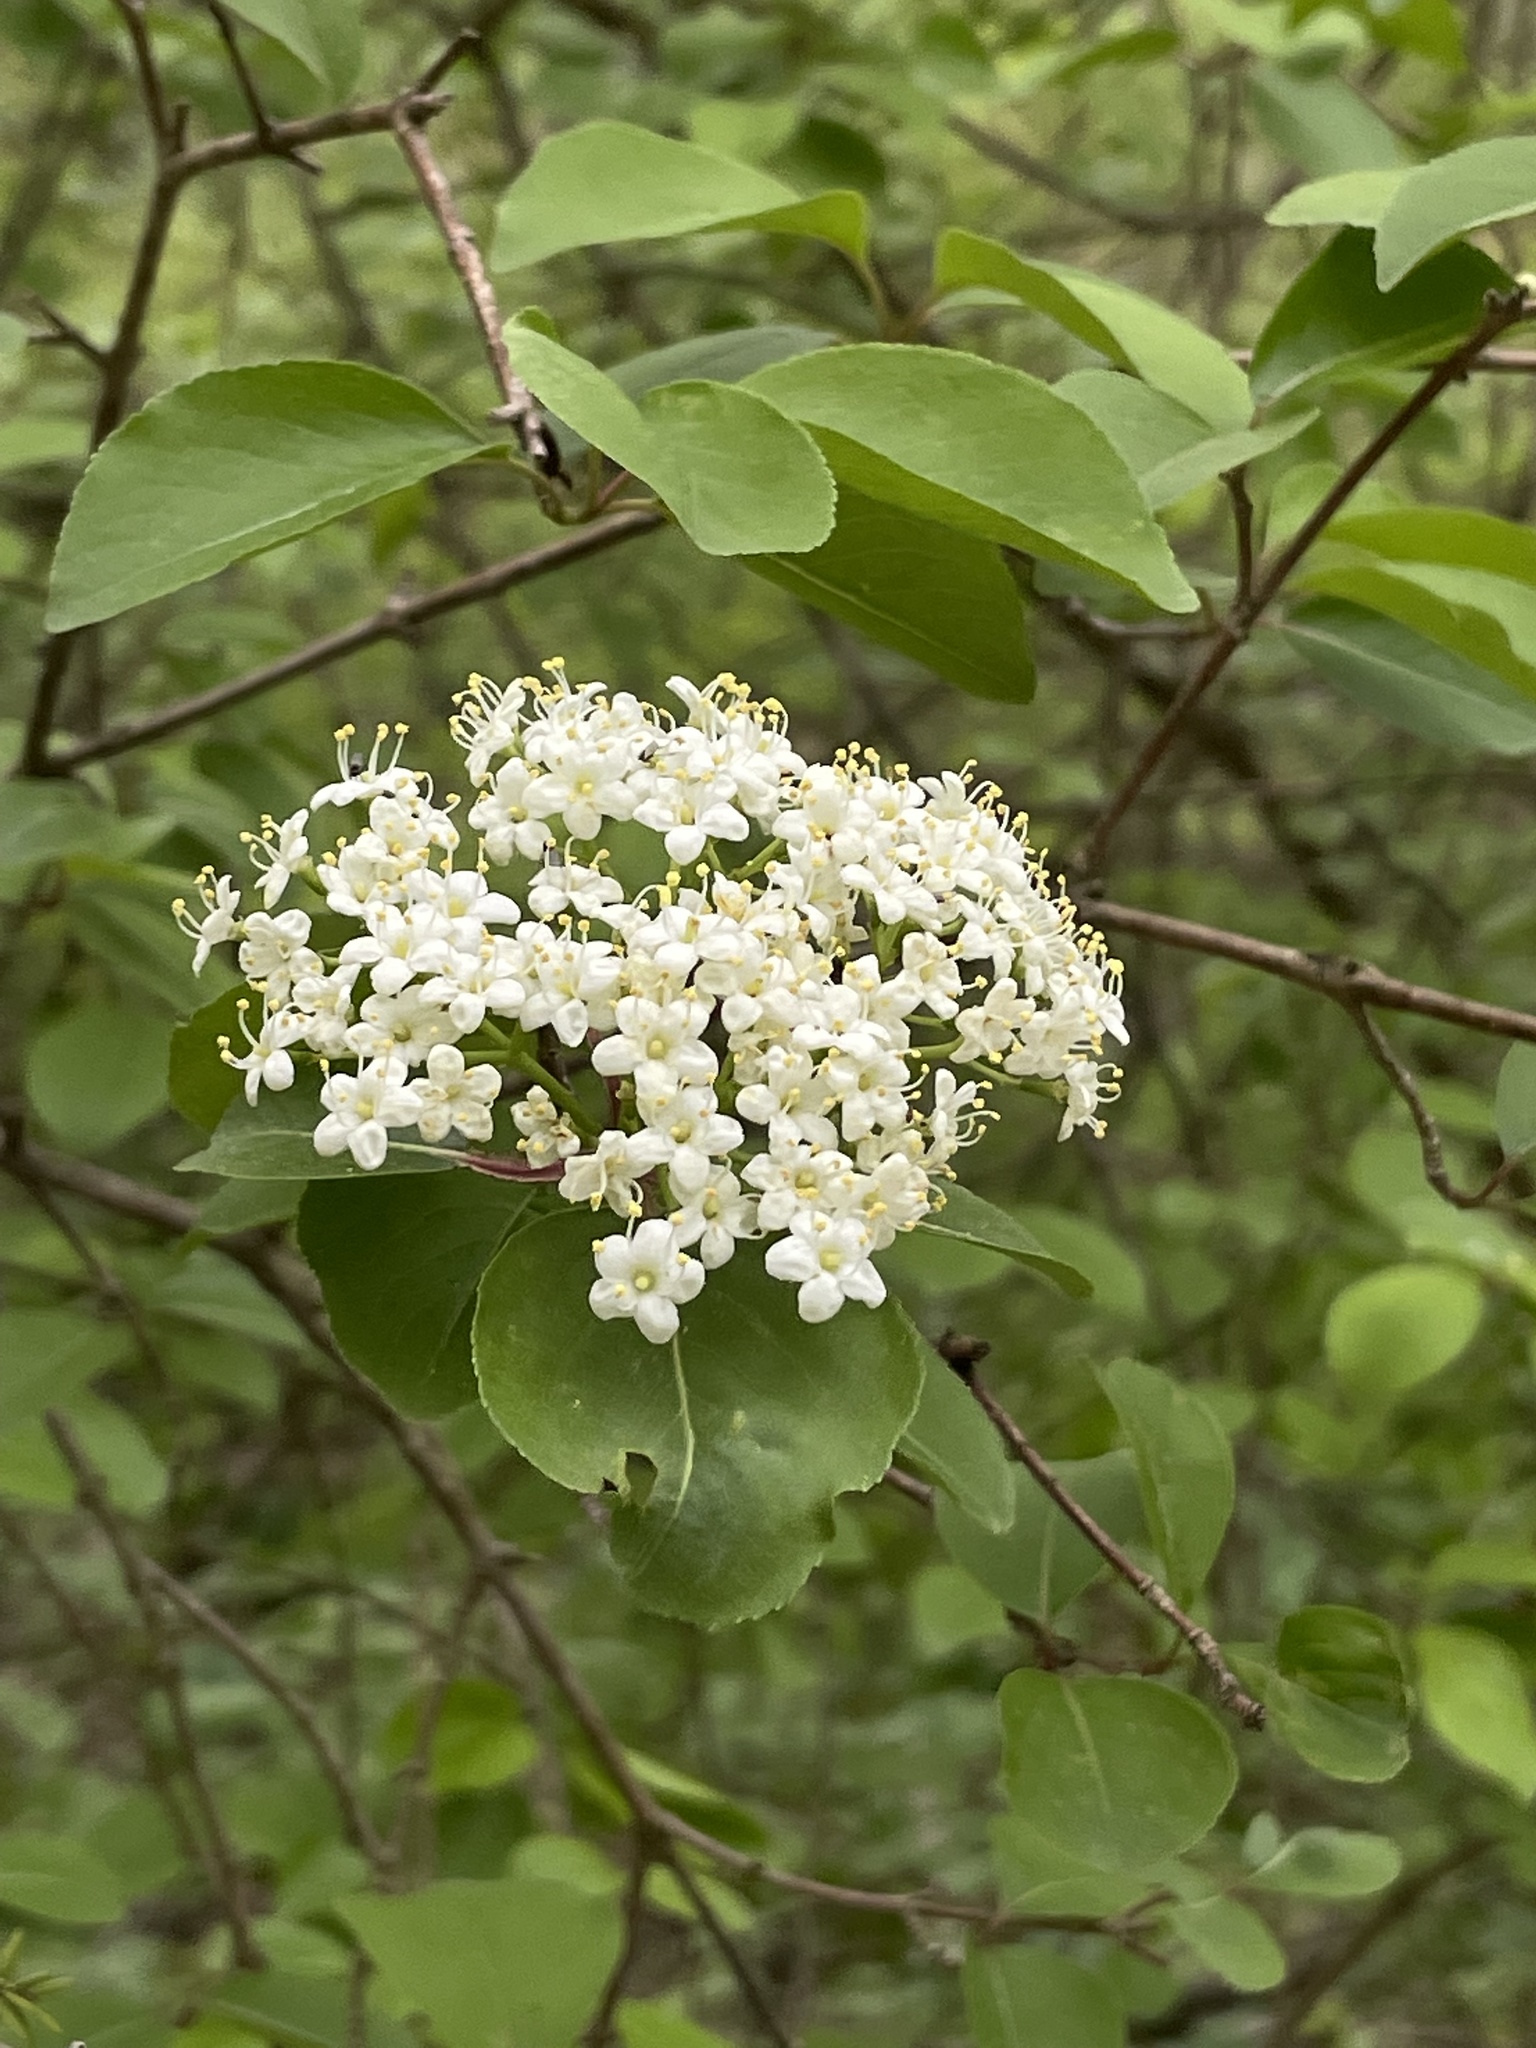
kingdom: Plantae
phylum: Tracheophyta
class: Magnoliopsida
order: Dipsacales
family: Viburnaceae
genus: Viburnum
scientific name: Viburnum prunifolium
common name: Black haw
